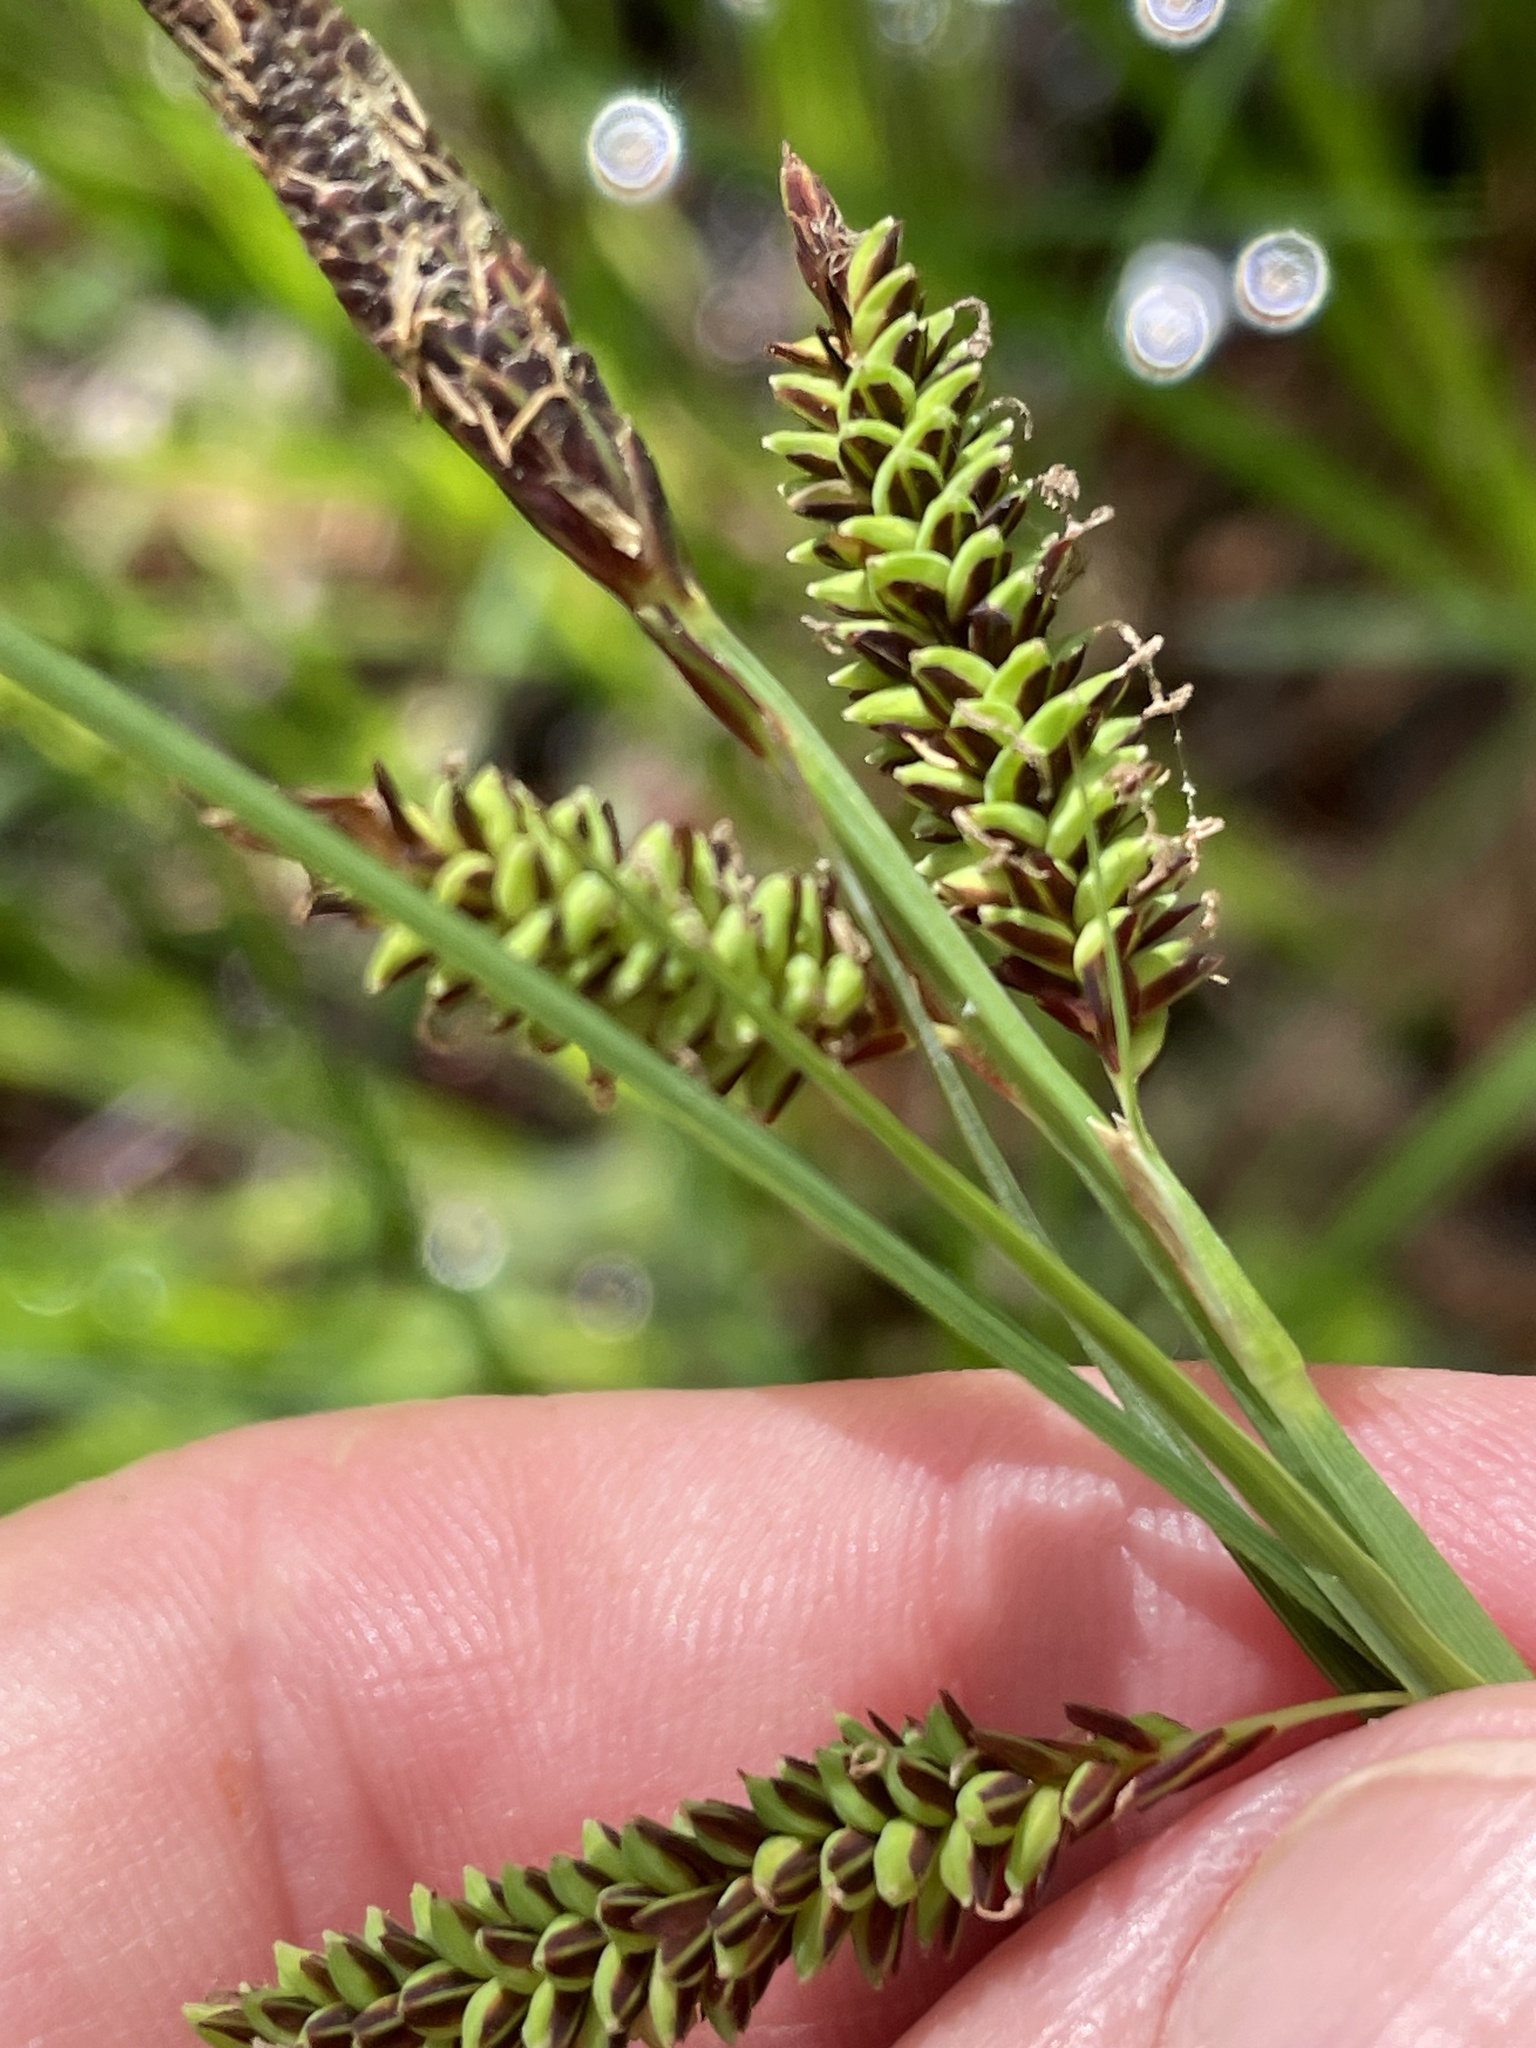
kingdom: Plantae
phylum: Tracheophyta
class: Liliopsida
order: Poales
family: Cyperaceae
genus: Carex
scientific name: Carex barrattii
